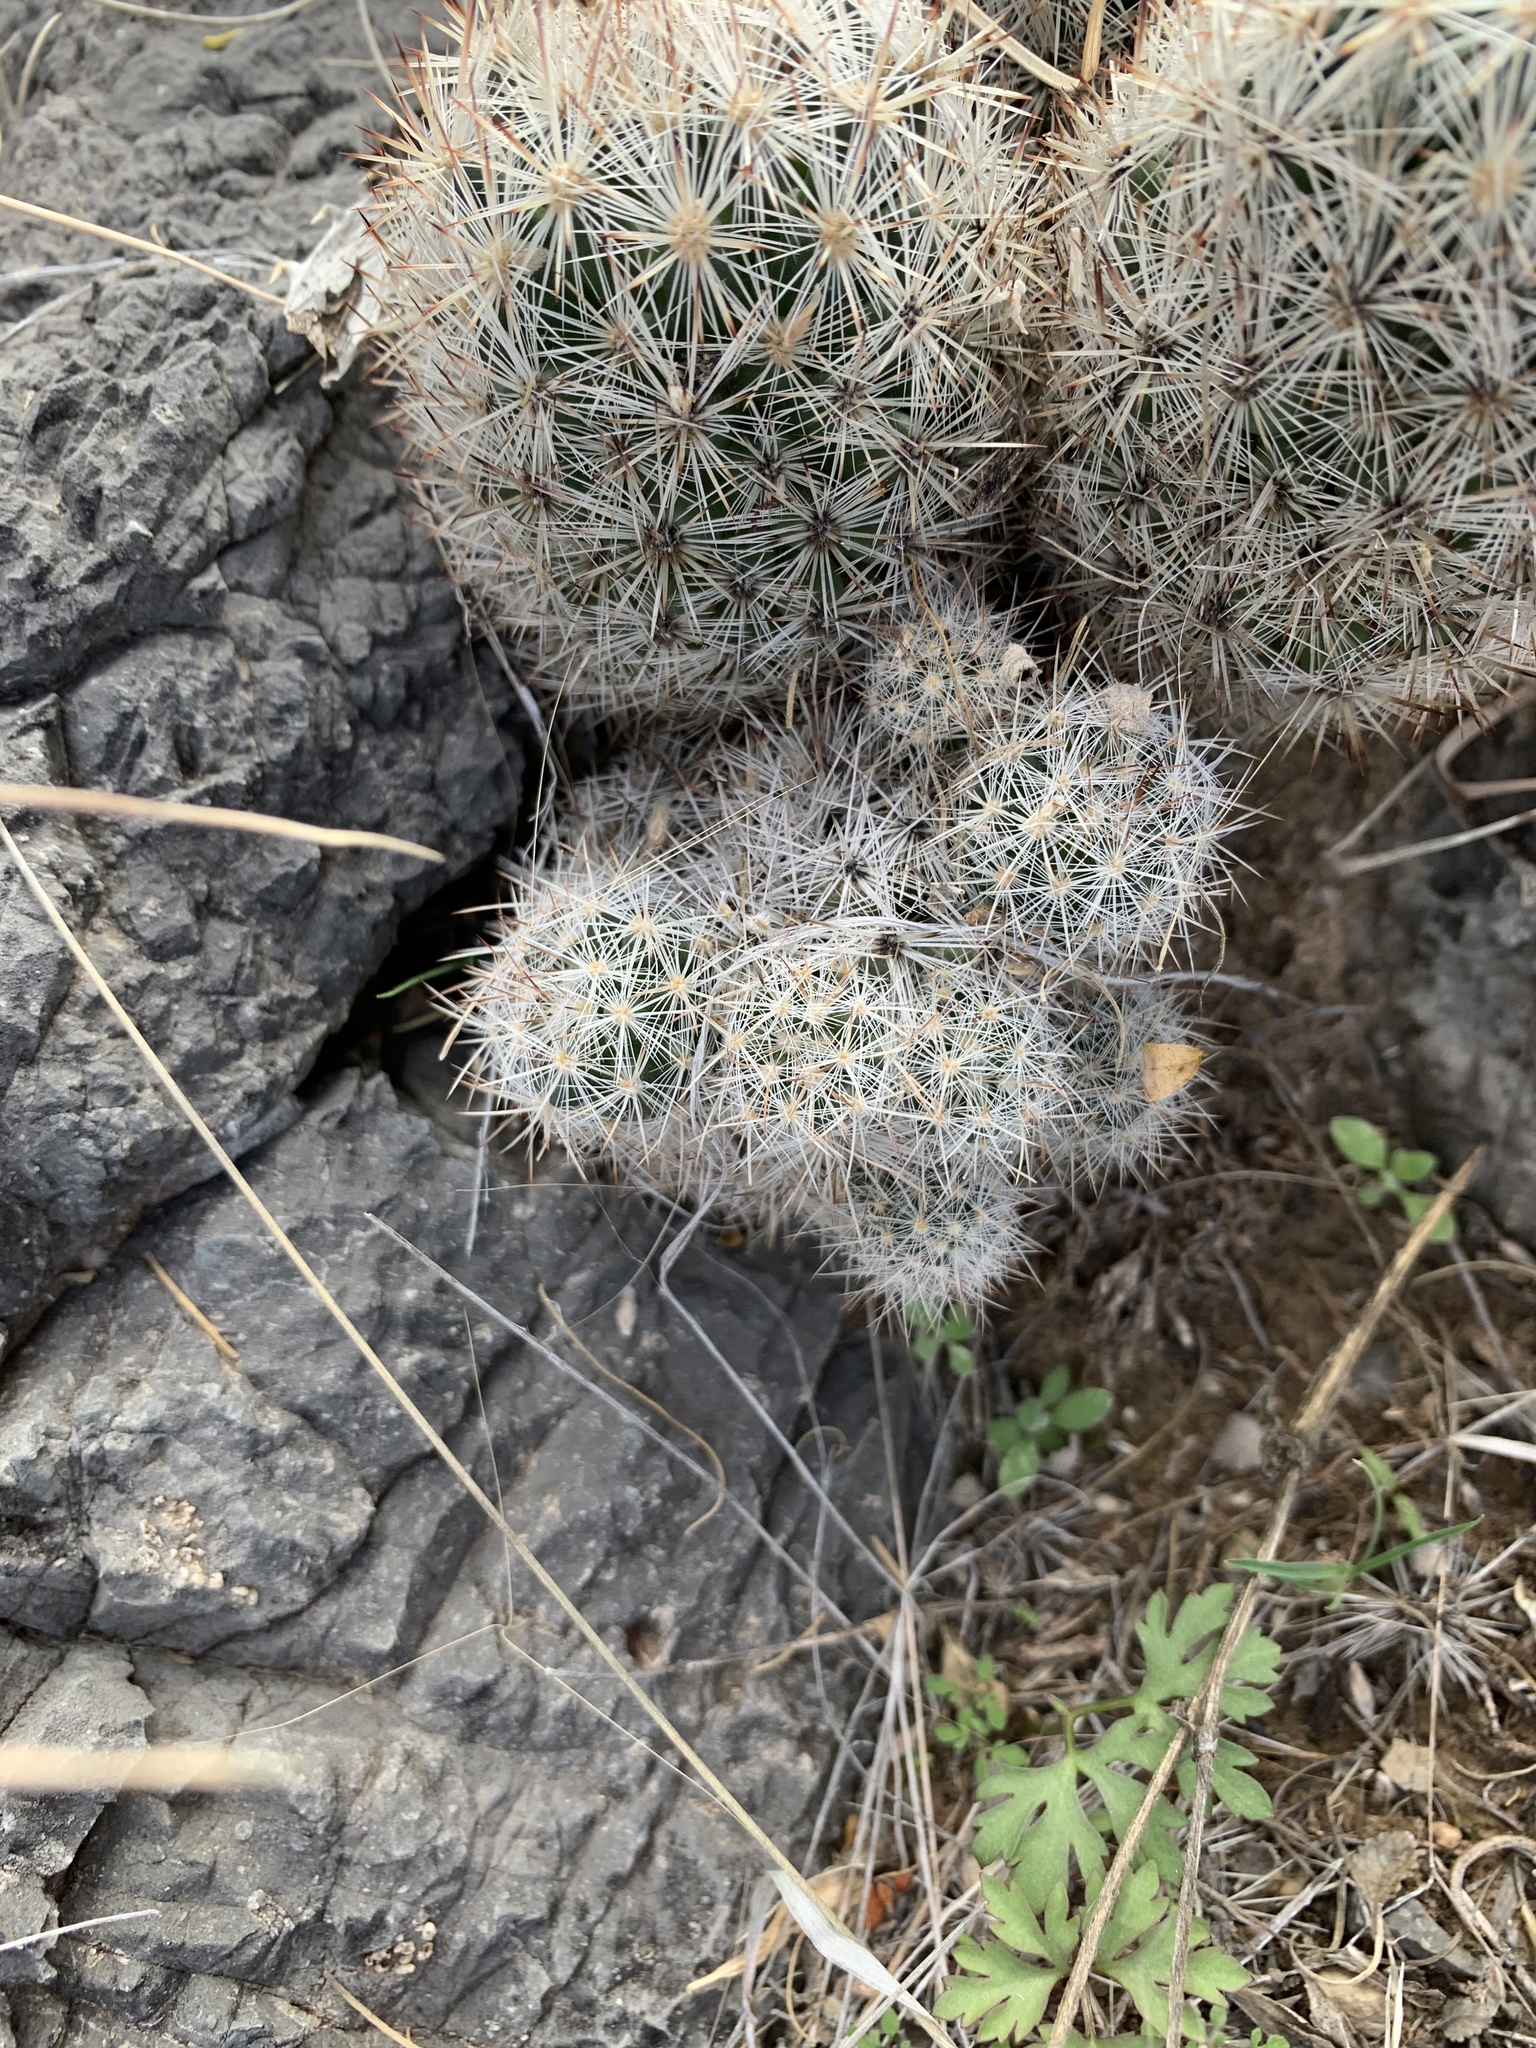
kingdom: Plantae
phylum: Tracheophyta
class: Magnoliopsida
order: Caryophyllales
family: Cactaceae
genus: Pelecyphora
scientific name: Pelecyphora sneedii
